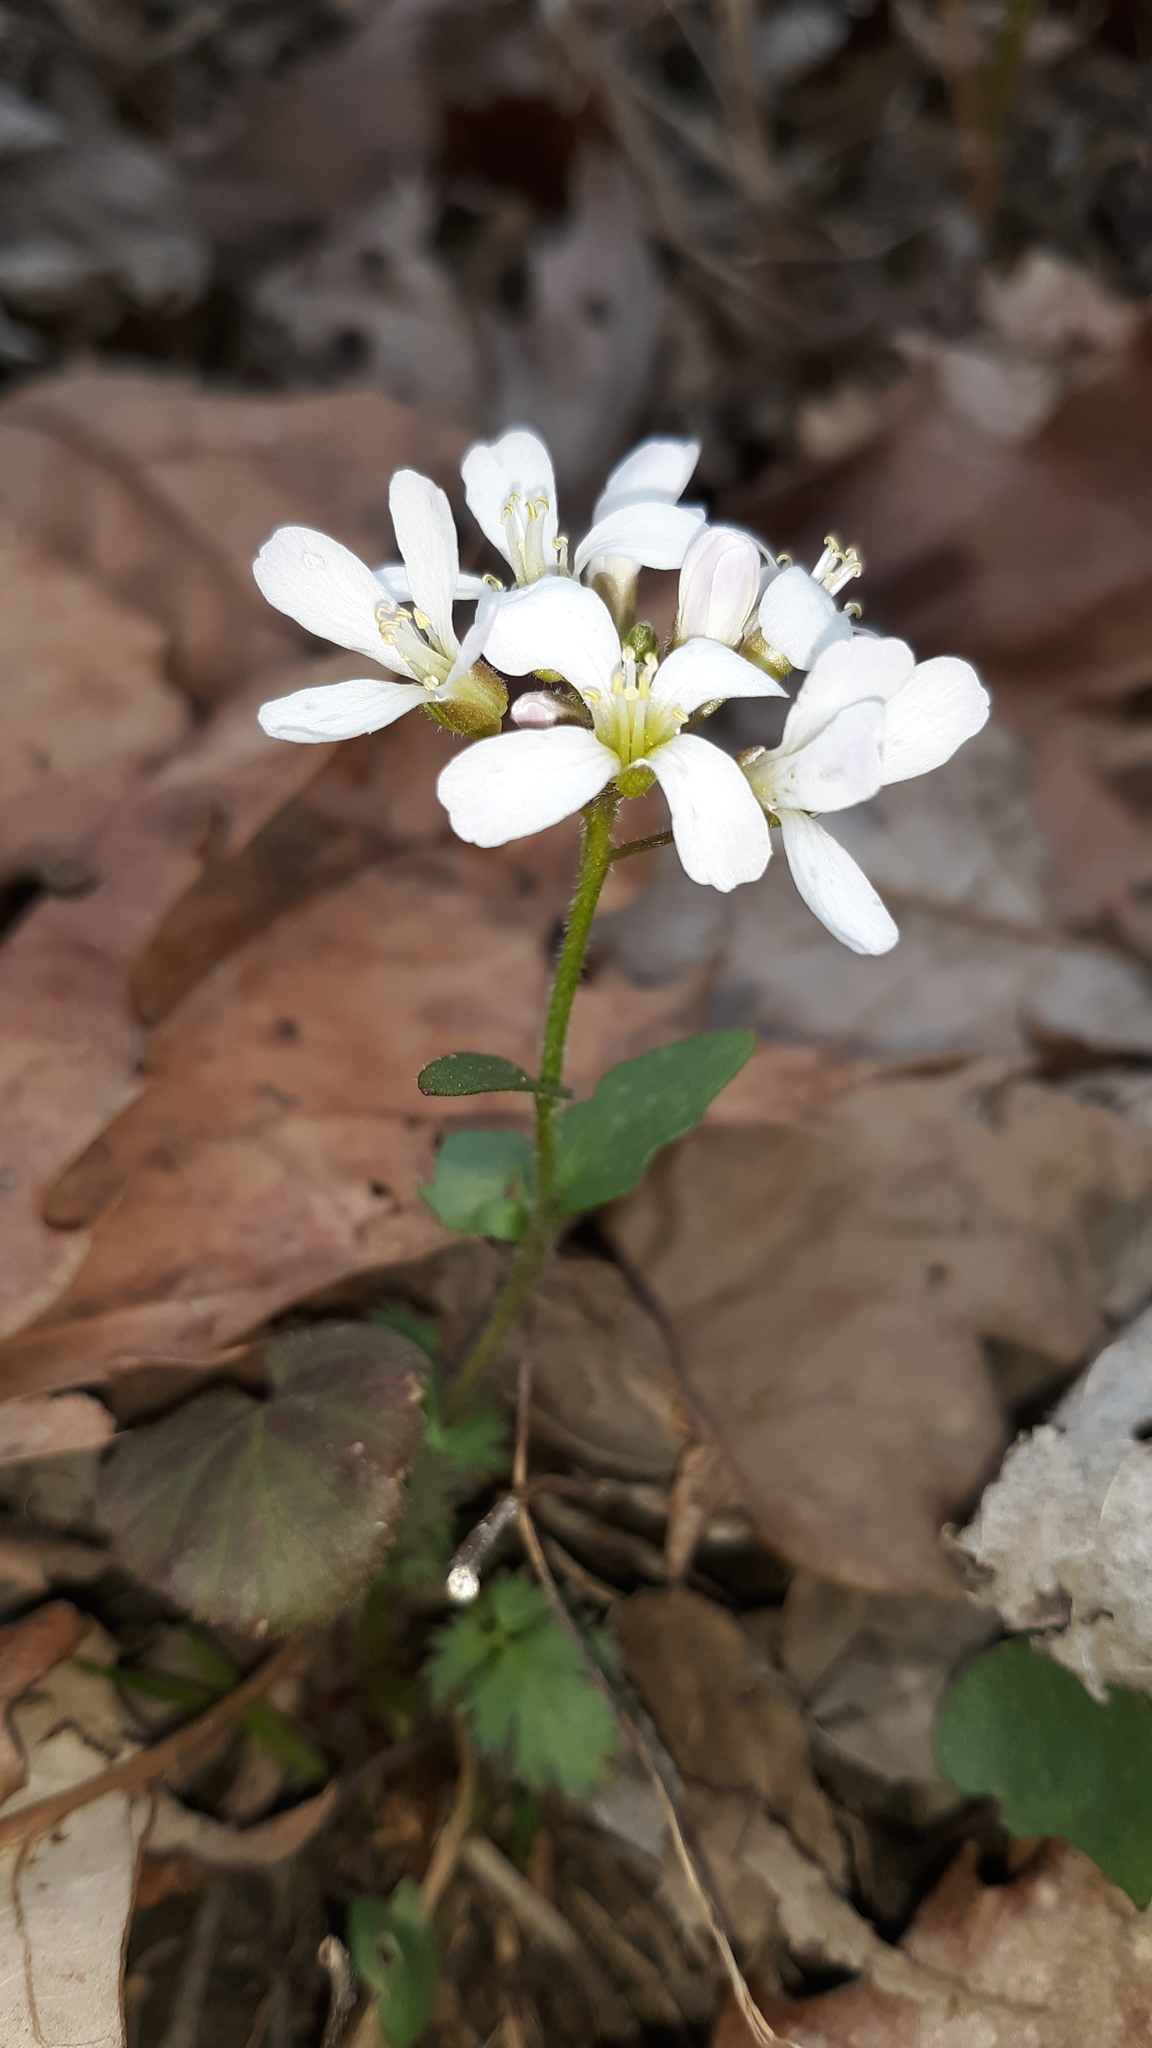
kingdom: Plantae
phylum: Tracheophyta
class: Magnoliopsida
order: Brassicales
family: Brassicaceae
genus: Cardamine
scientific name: Cardamine douglassii
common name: Purple cress
